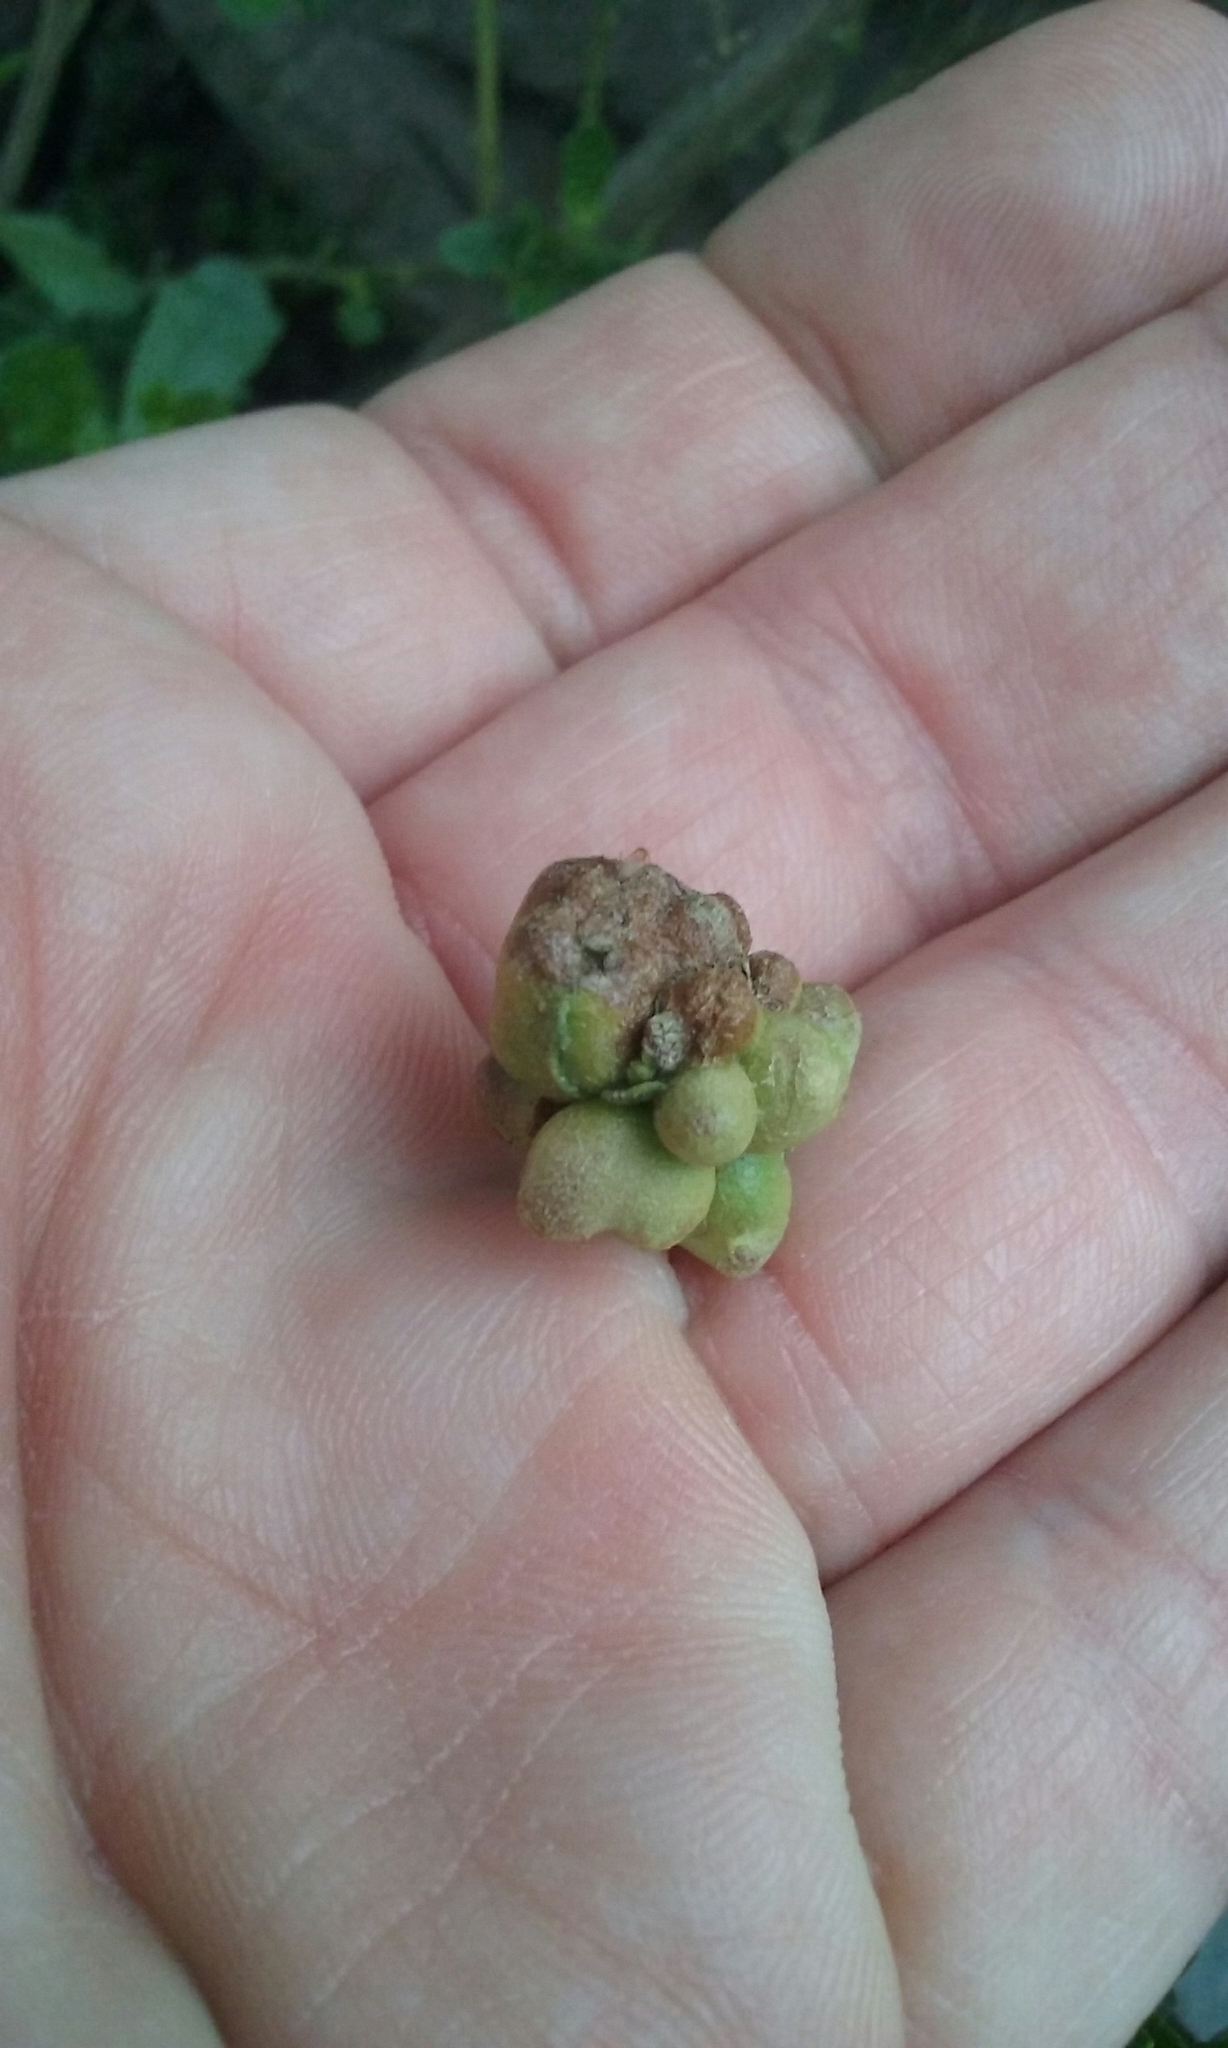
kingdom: Animalia
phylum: Arthropoda
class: Insecta
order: Diptera
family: Cecidomyiidae
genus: Rhopalomyia
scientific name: Rhopalomyia californica
